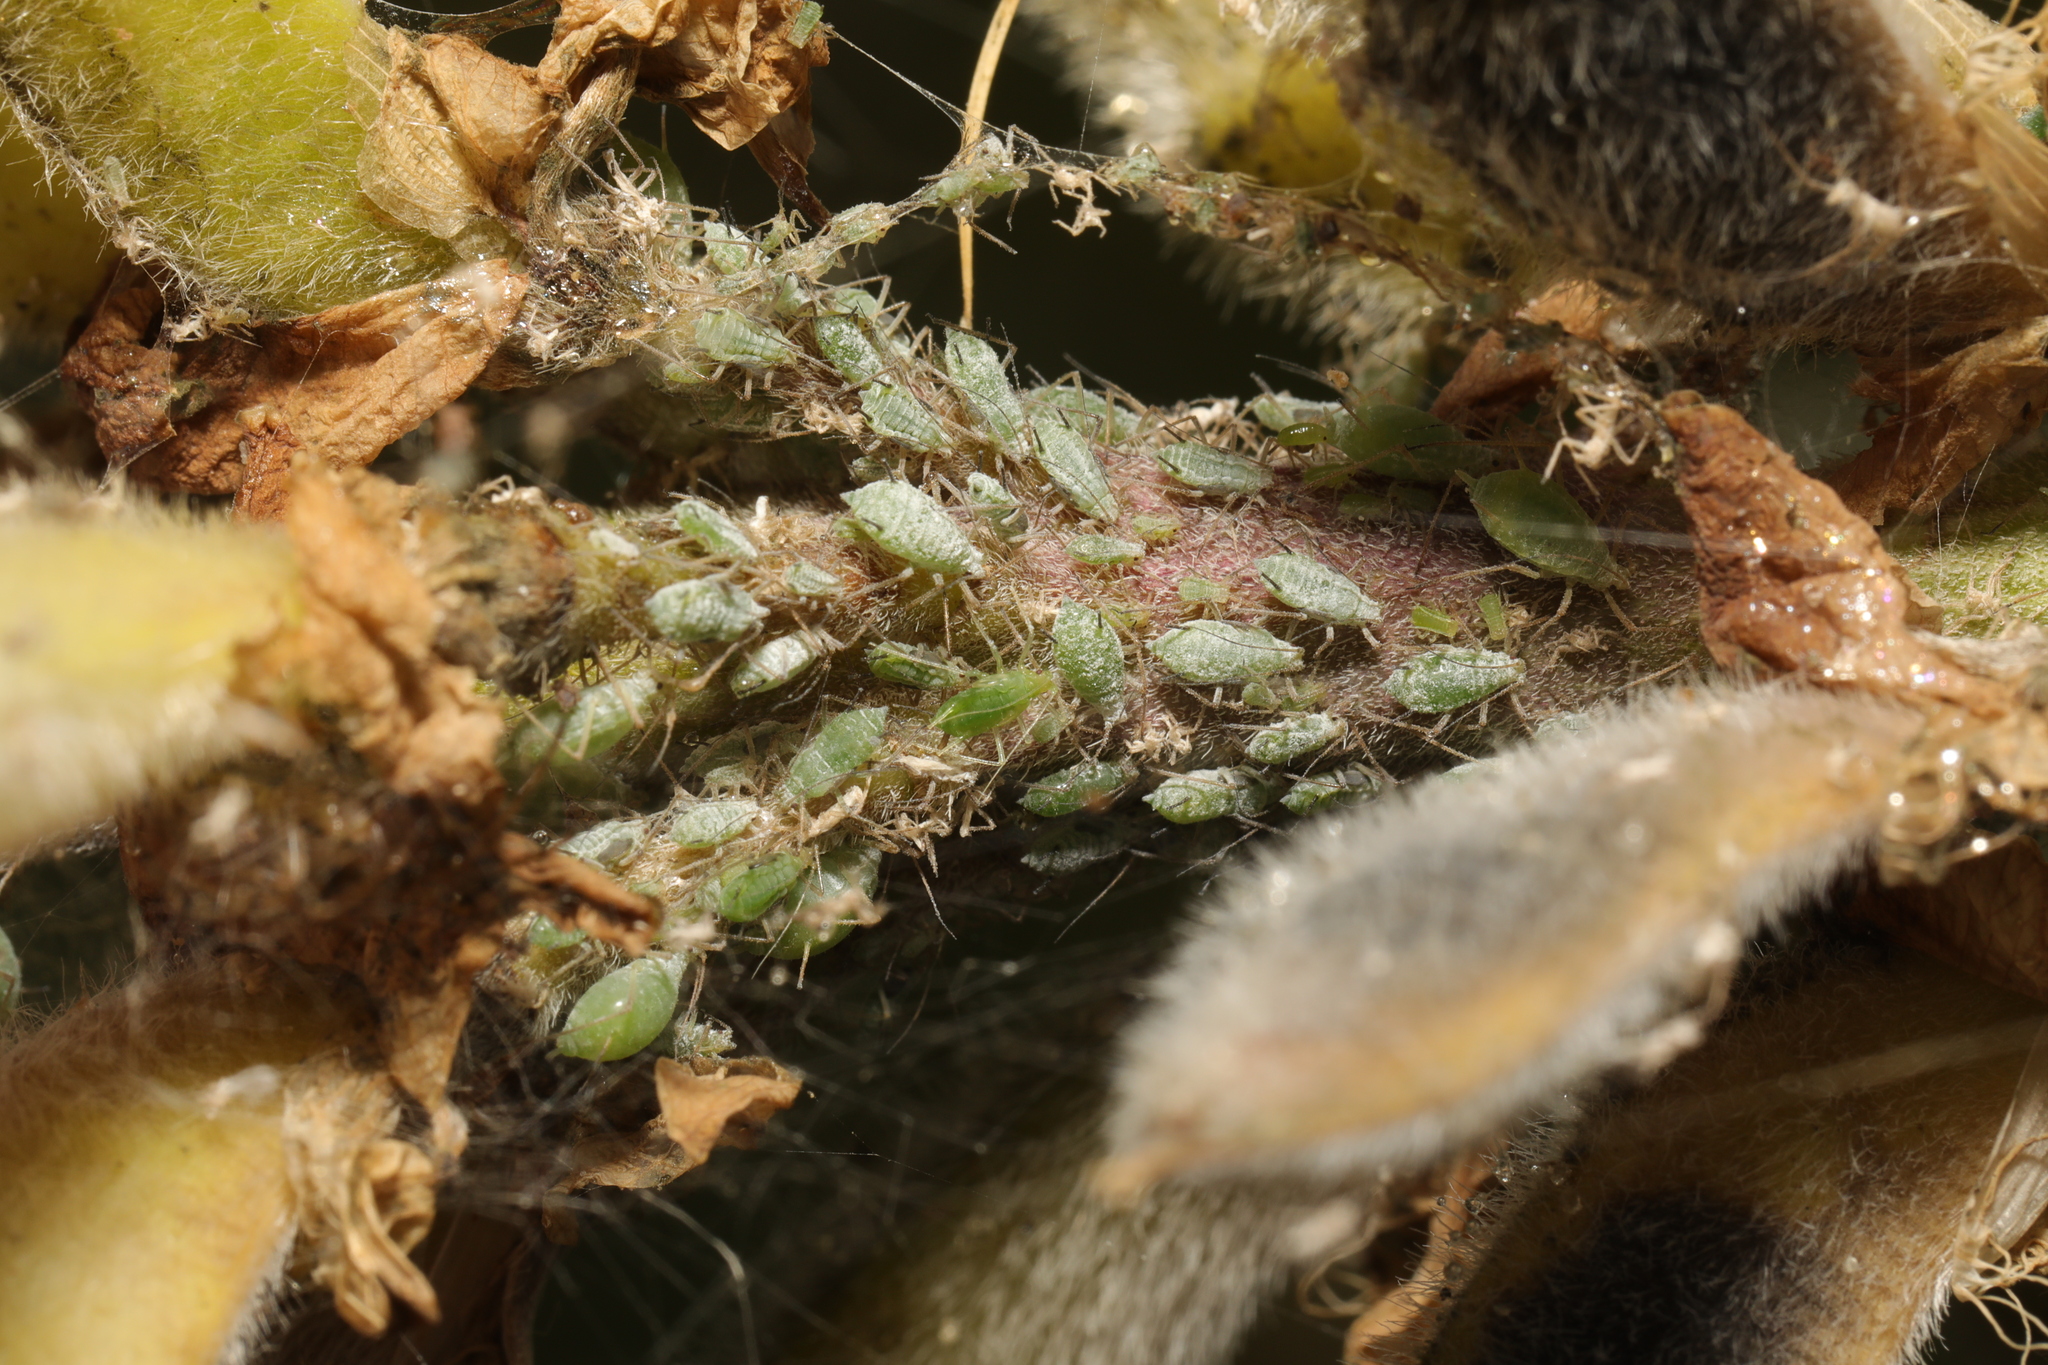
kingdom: Animalia
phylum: Arthropoda
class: Insecta
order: Hemiptera
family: Aphididae
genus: Macrosiphum
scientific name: Macrosiphum albifrons
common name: Lupine aphid
